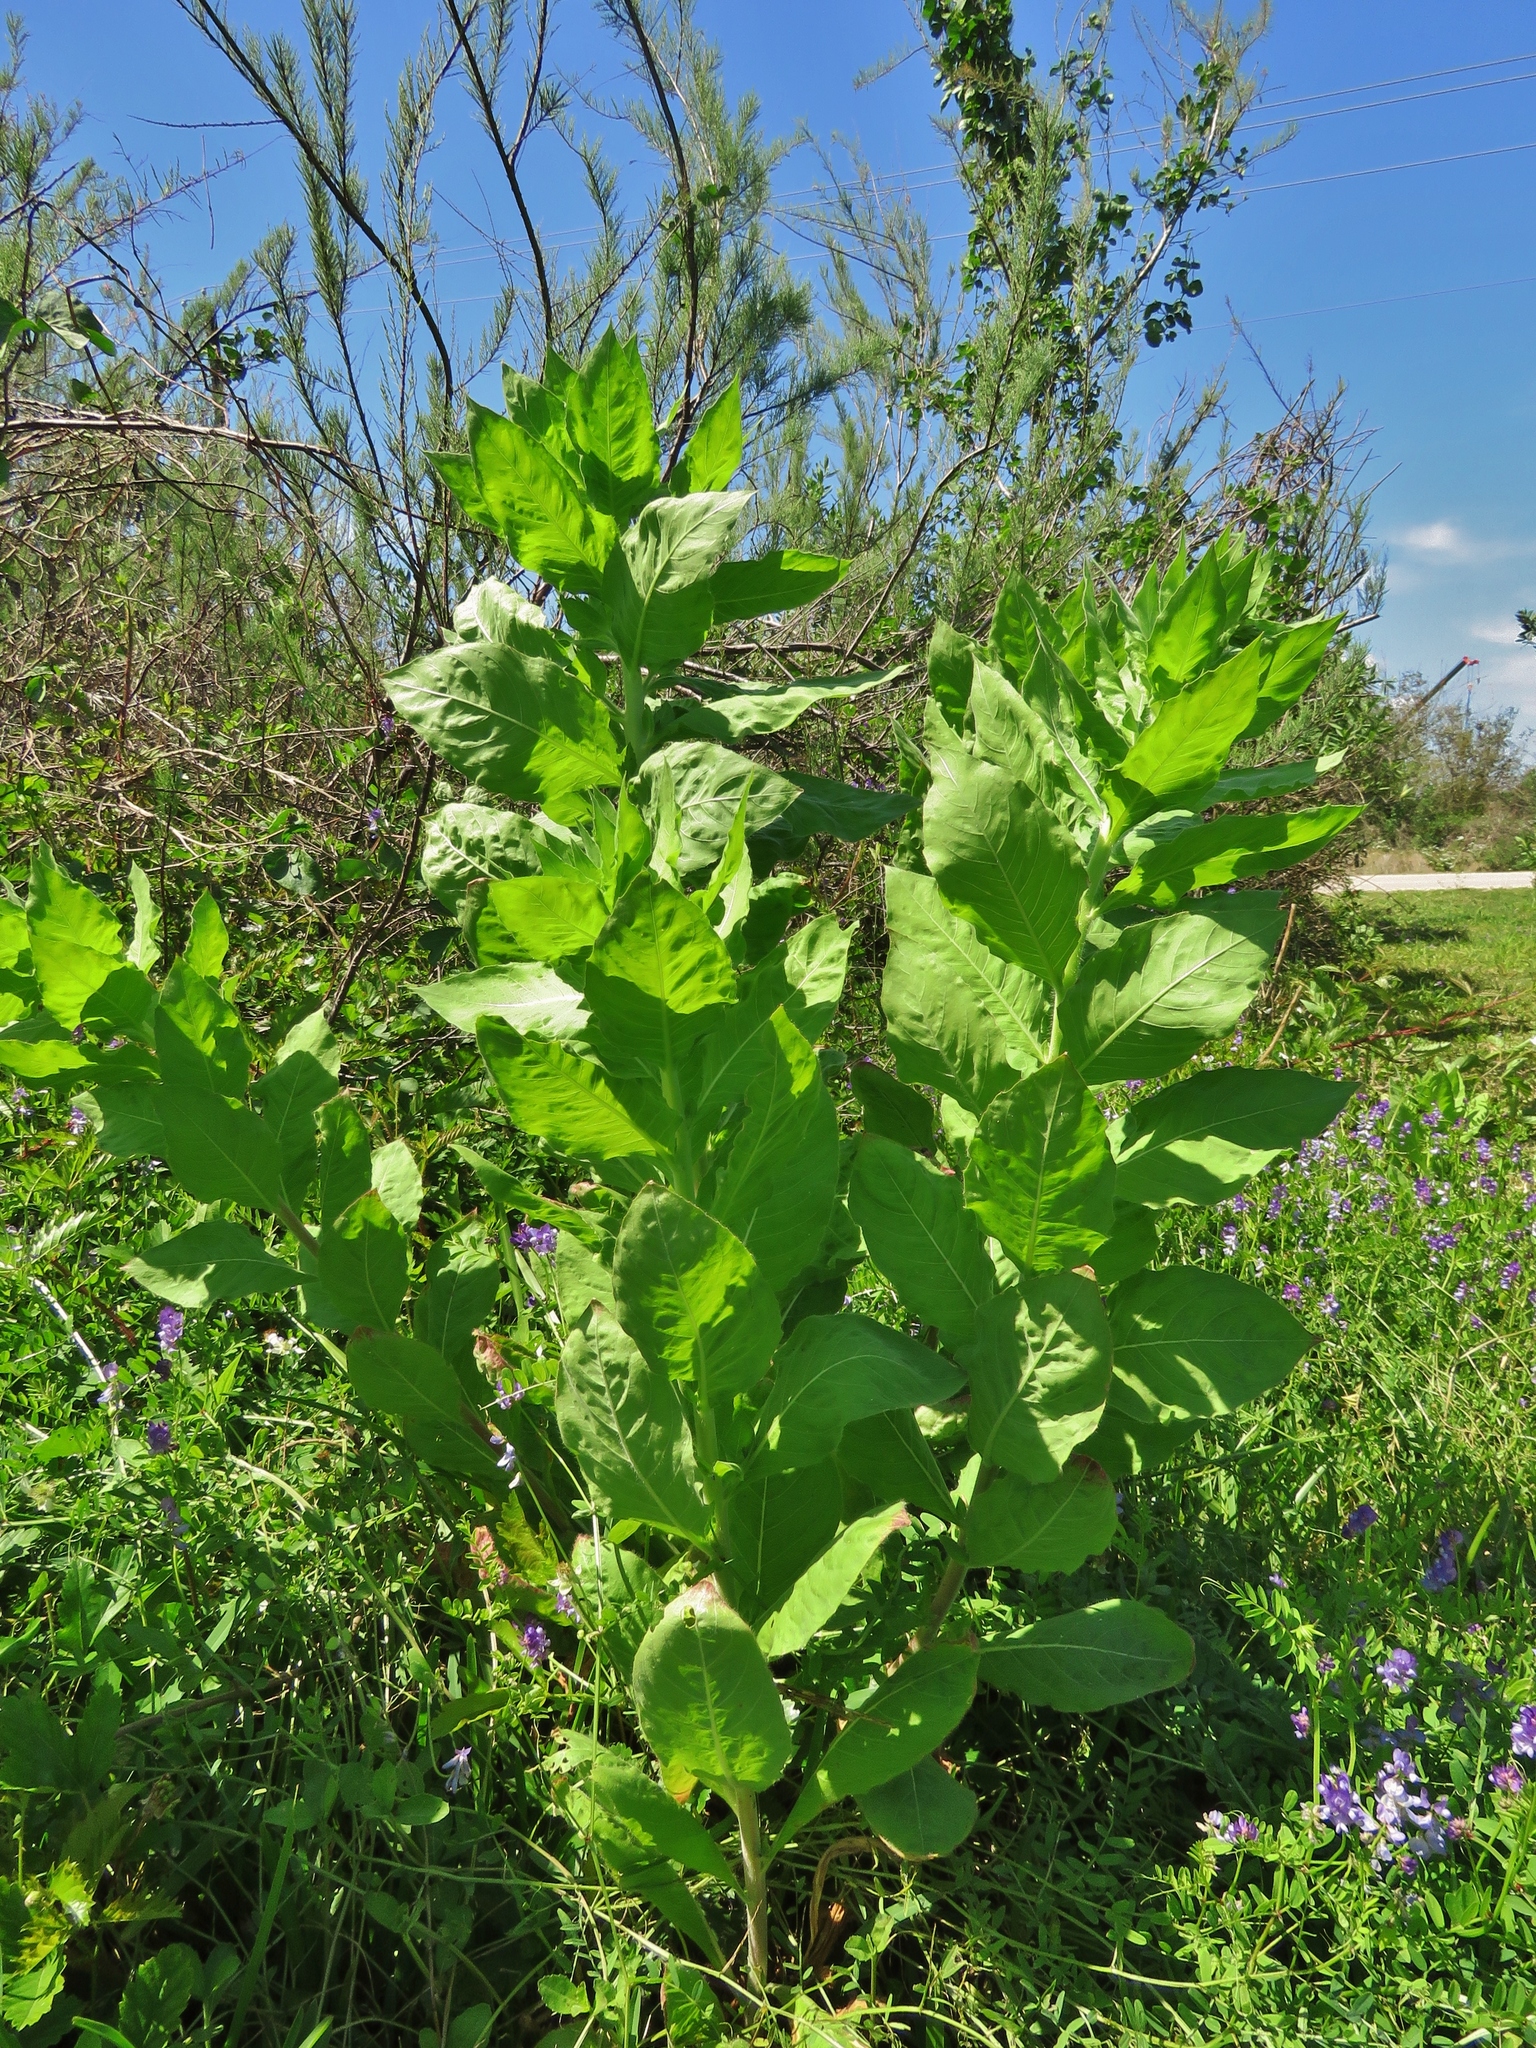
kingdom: Plantae
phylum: Tracheophyta
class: Magnoliopsida
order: Myrtales
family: Onagraceae
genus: Oenothera
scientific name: Oenothera curtiflora
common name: Velvetweed
